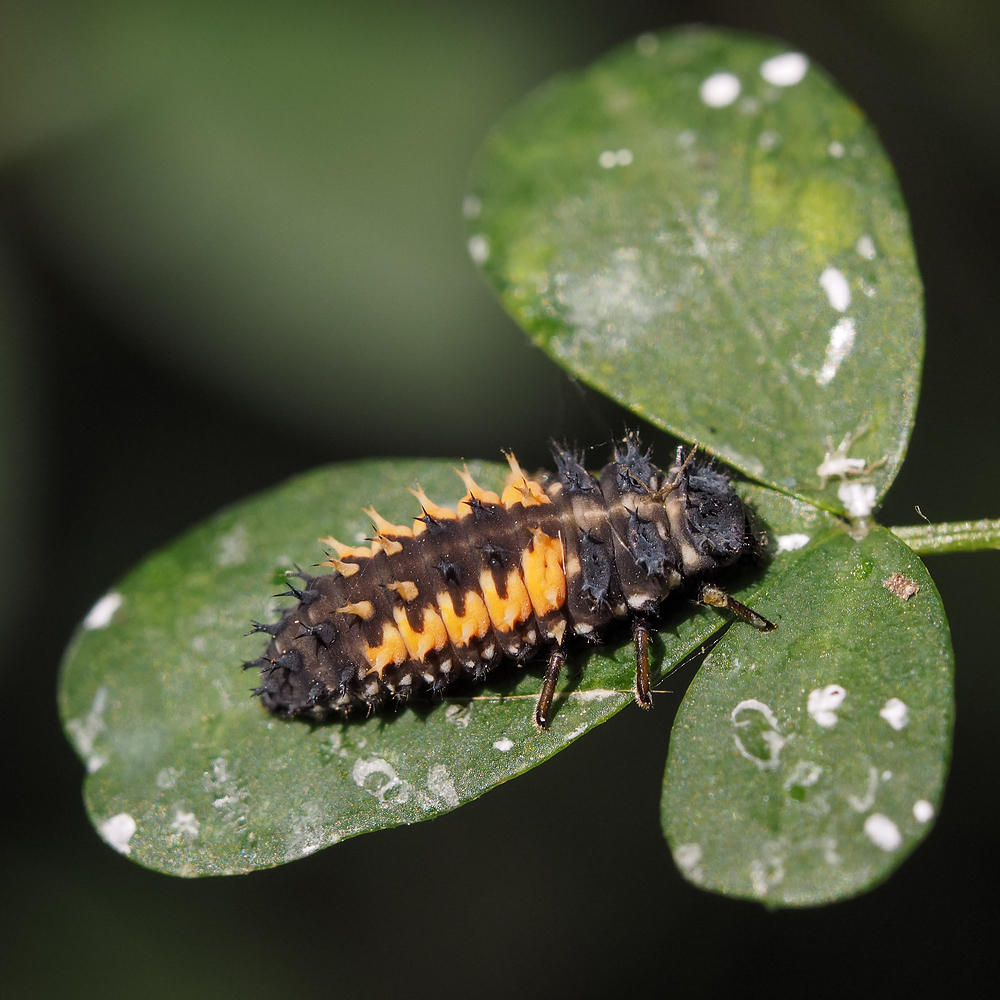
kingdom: Animalia
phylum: Arthropoda
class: Insecta
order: Coleoptera
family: Coccinellidae
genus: Harmonia
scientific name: Harmonia axyridis
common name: Harlequin ladybird
